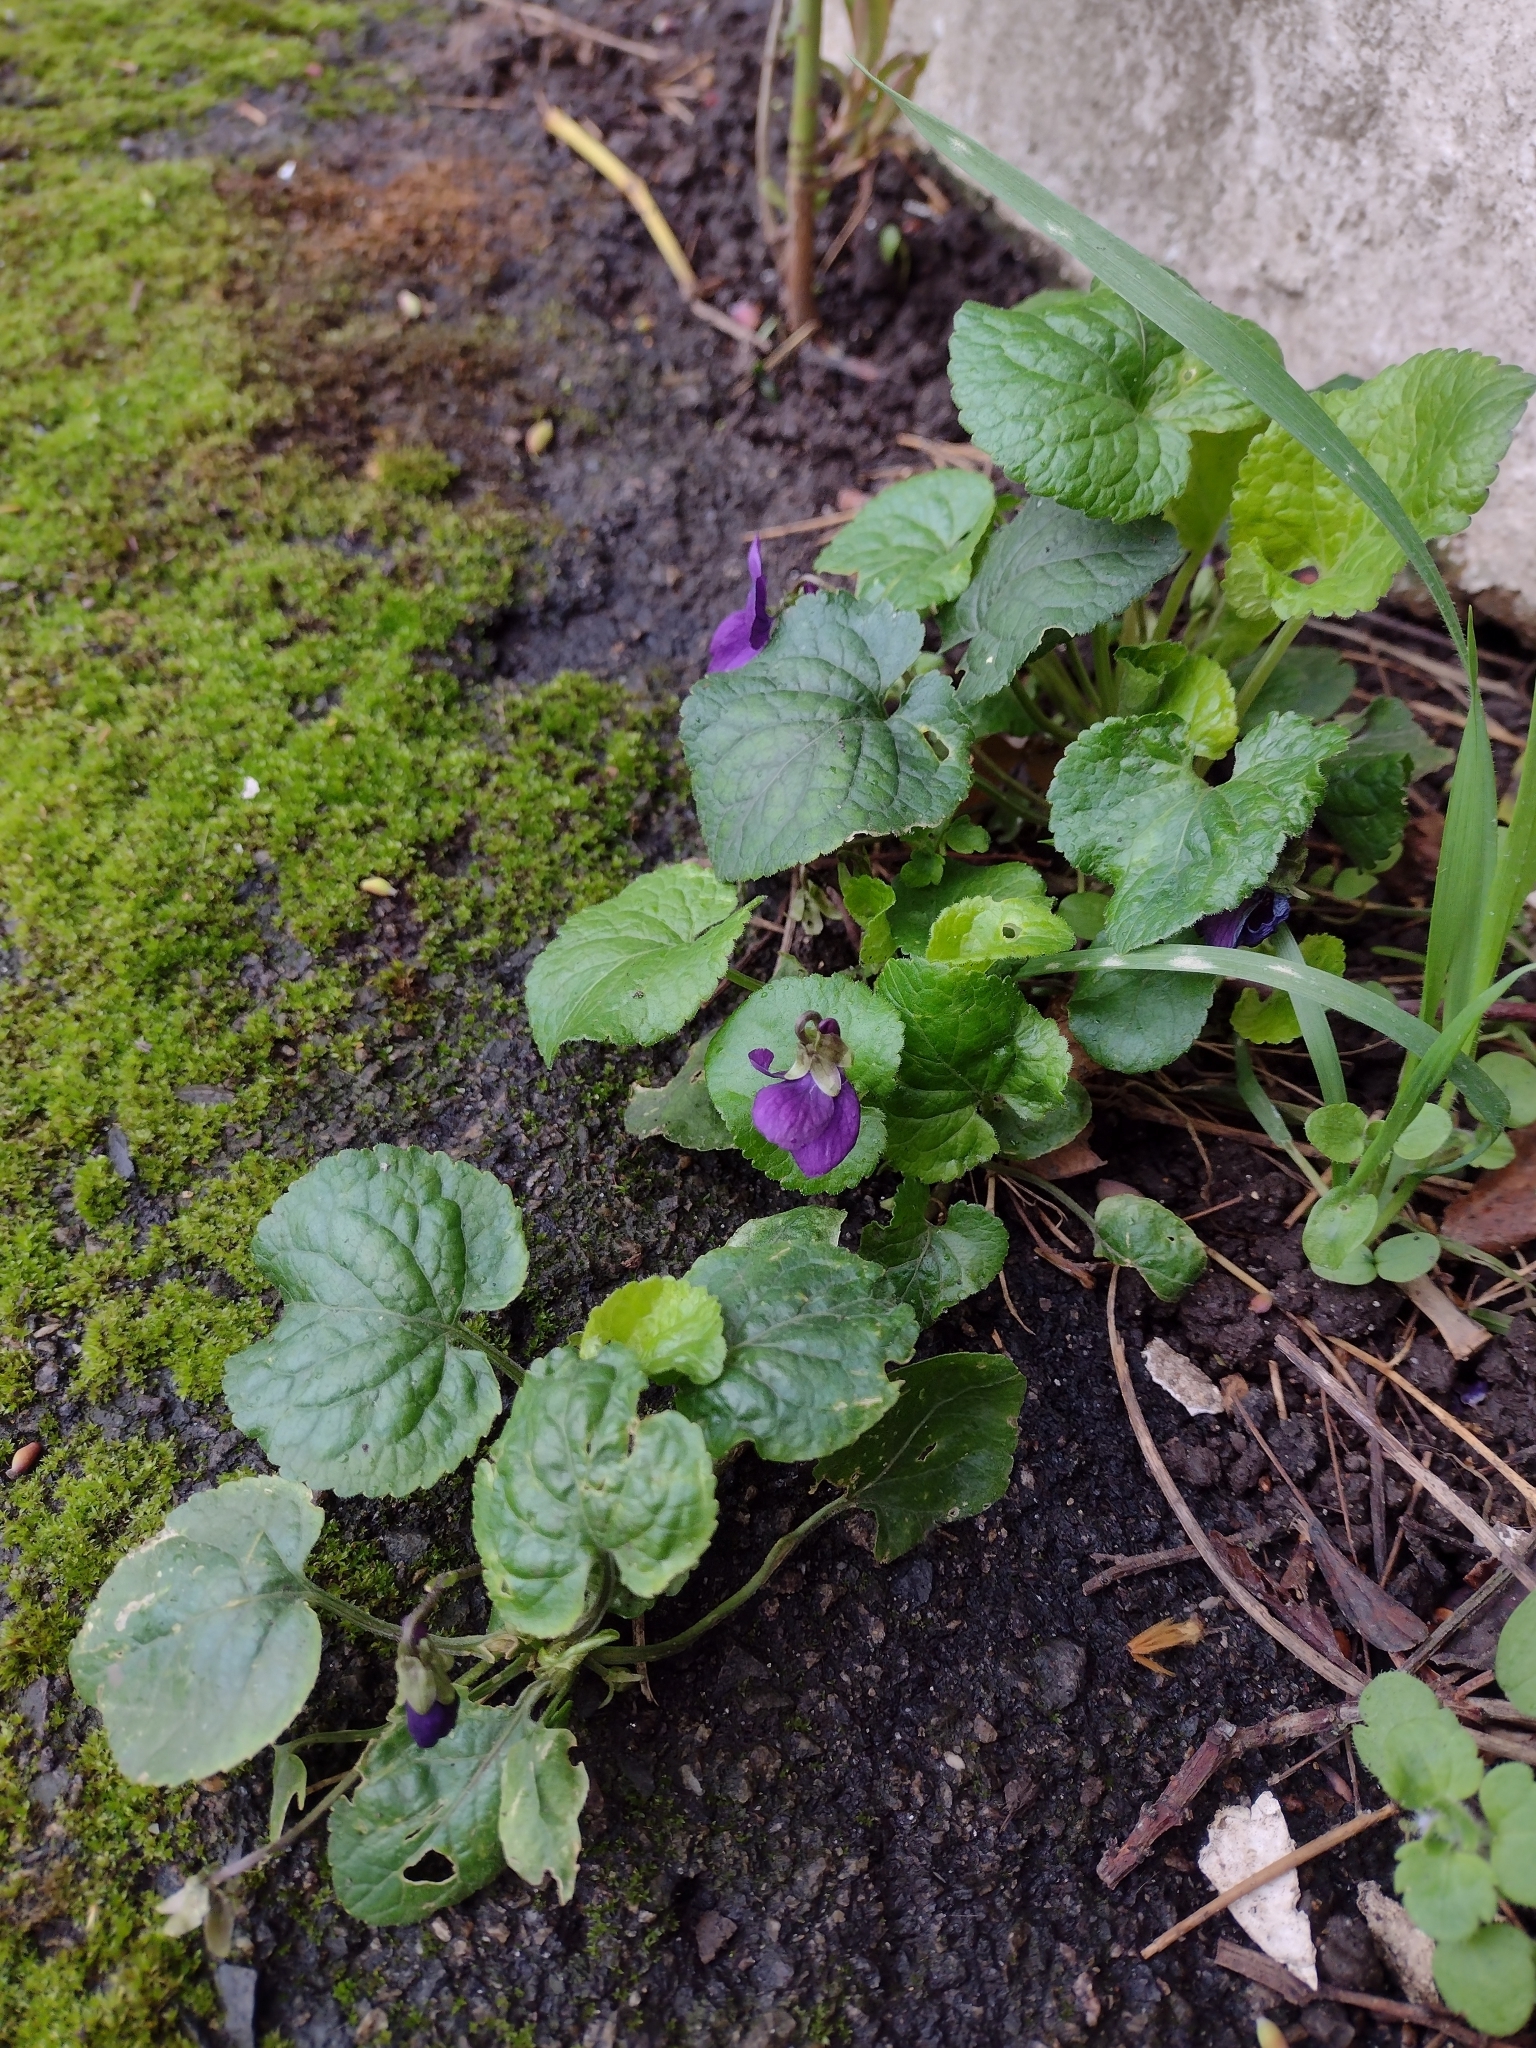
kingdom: Plantae
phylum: Tracheophyta
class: Magnoliopsida
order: Malpighiales
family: Violaceae
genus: Viola
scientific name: Viola odorata
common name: Sweet violet
